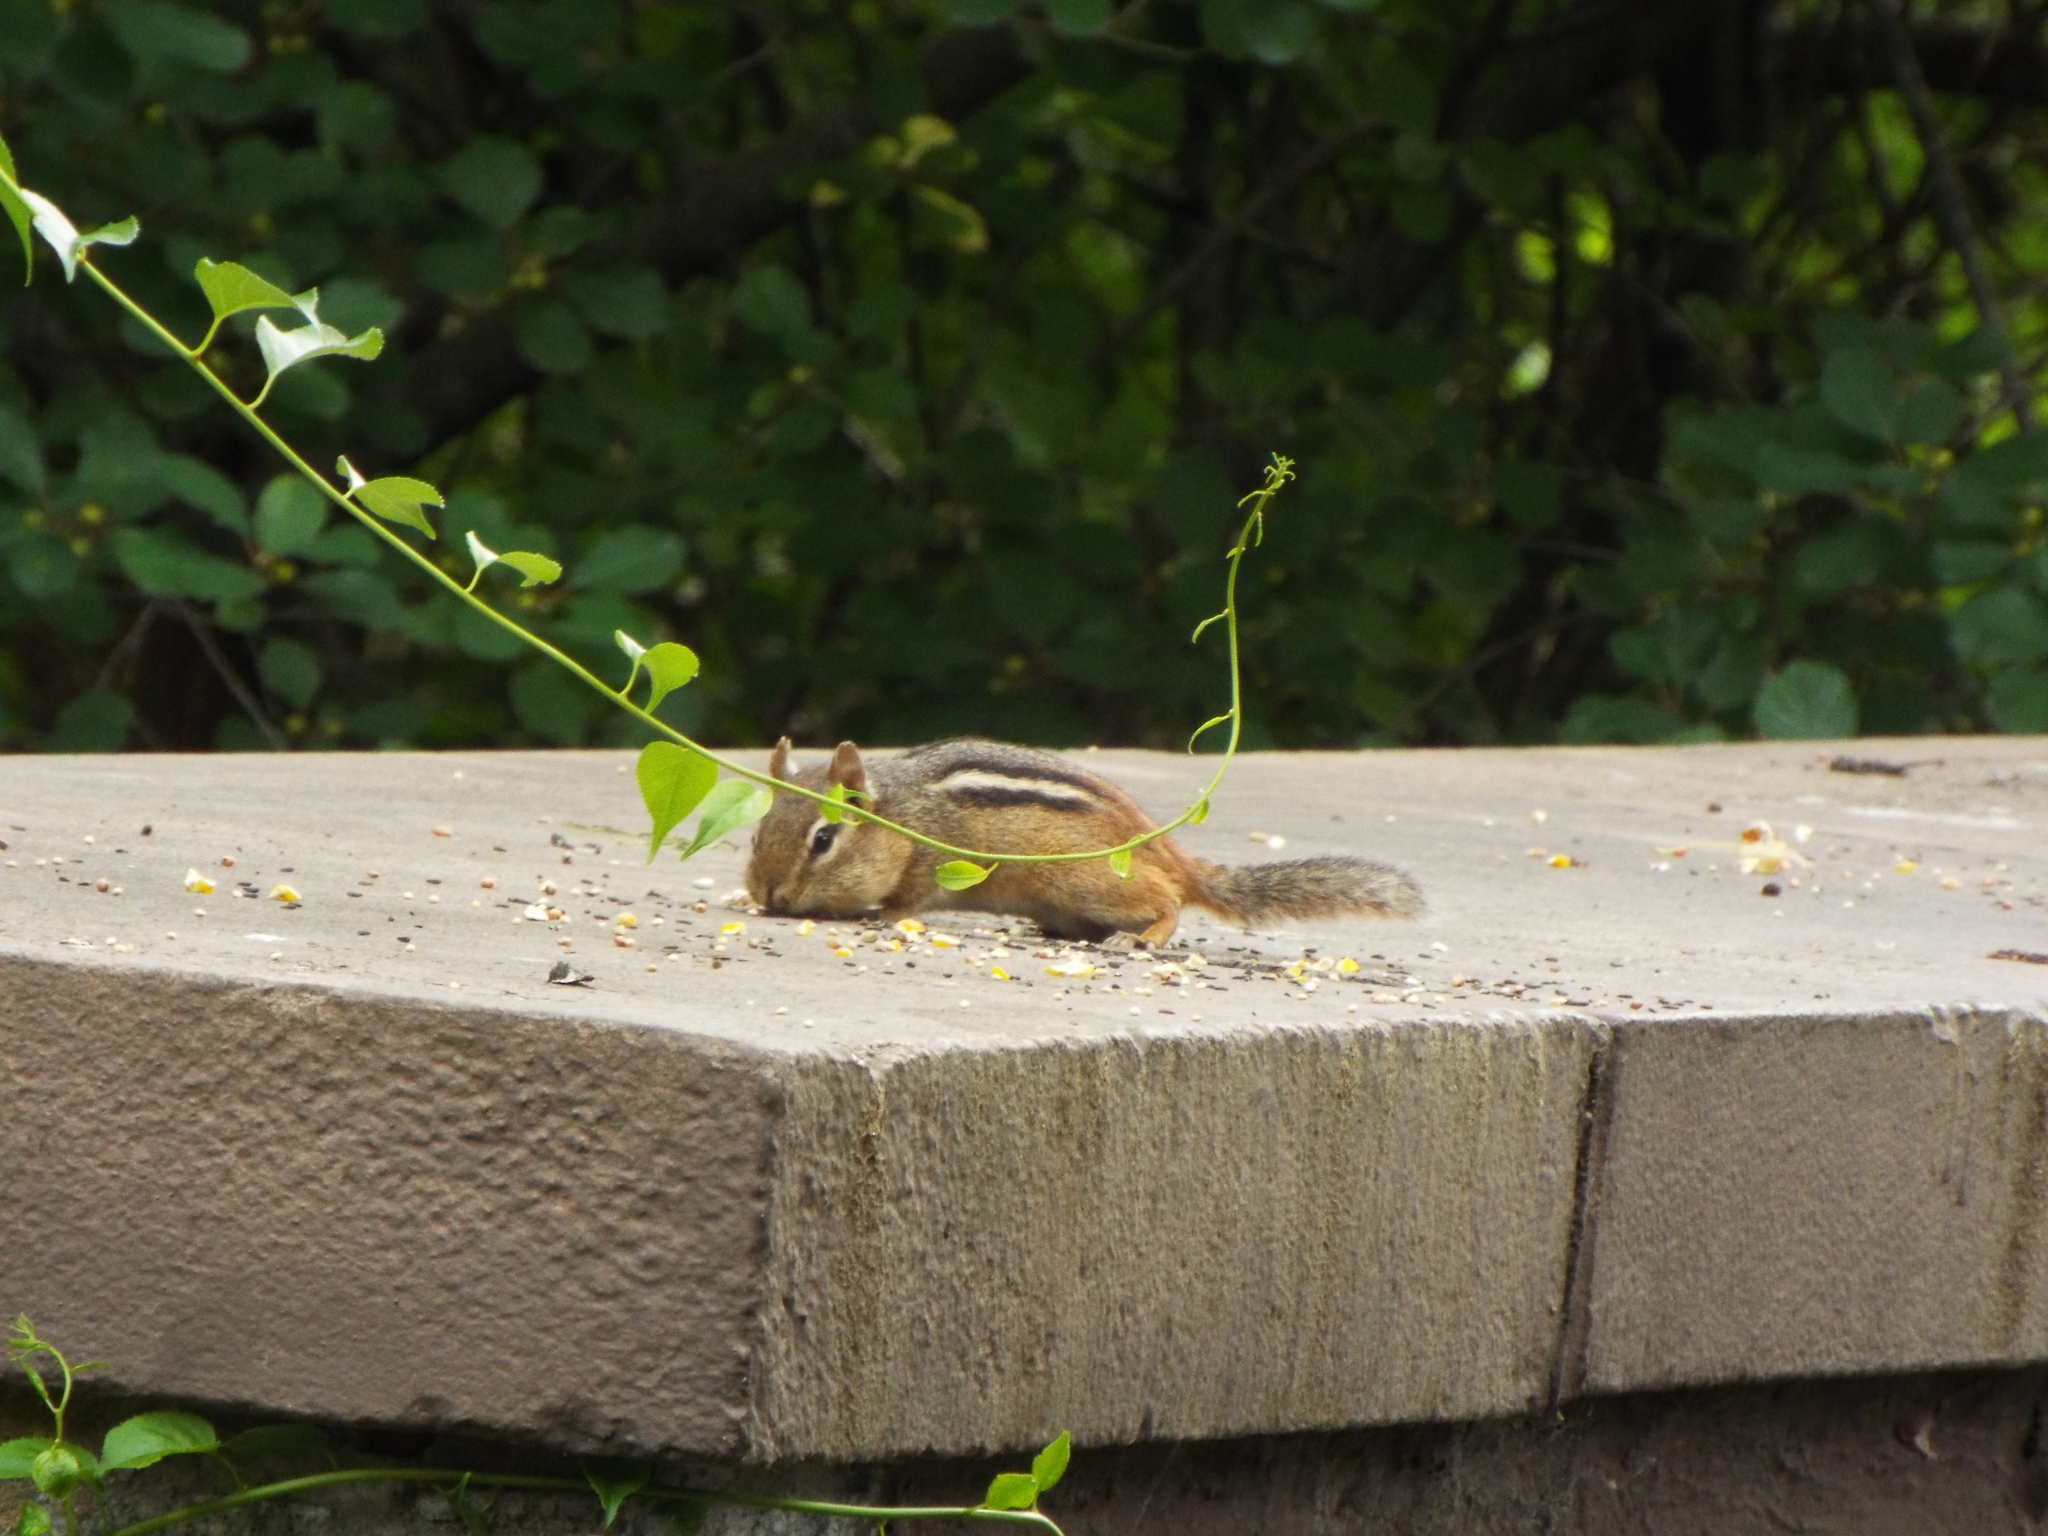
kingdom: Animalia
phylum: Chordata
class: Mammalia
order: Rodentia
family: Sciuridae
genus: Tamias
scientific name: Tamias striatus
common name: Eastern chipmunk
